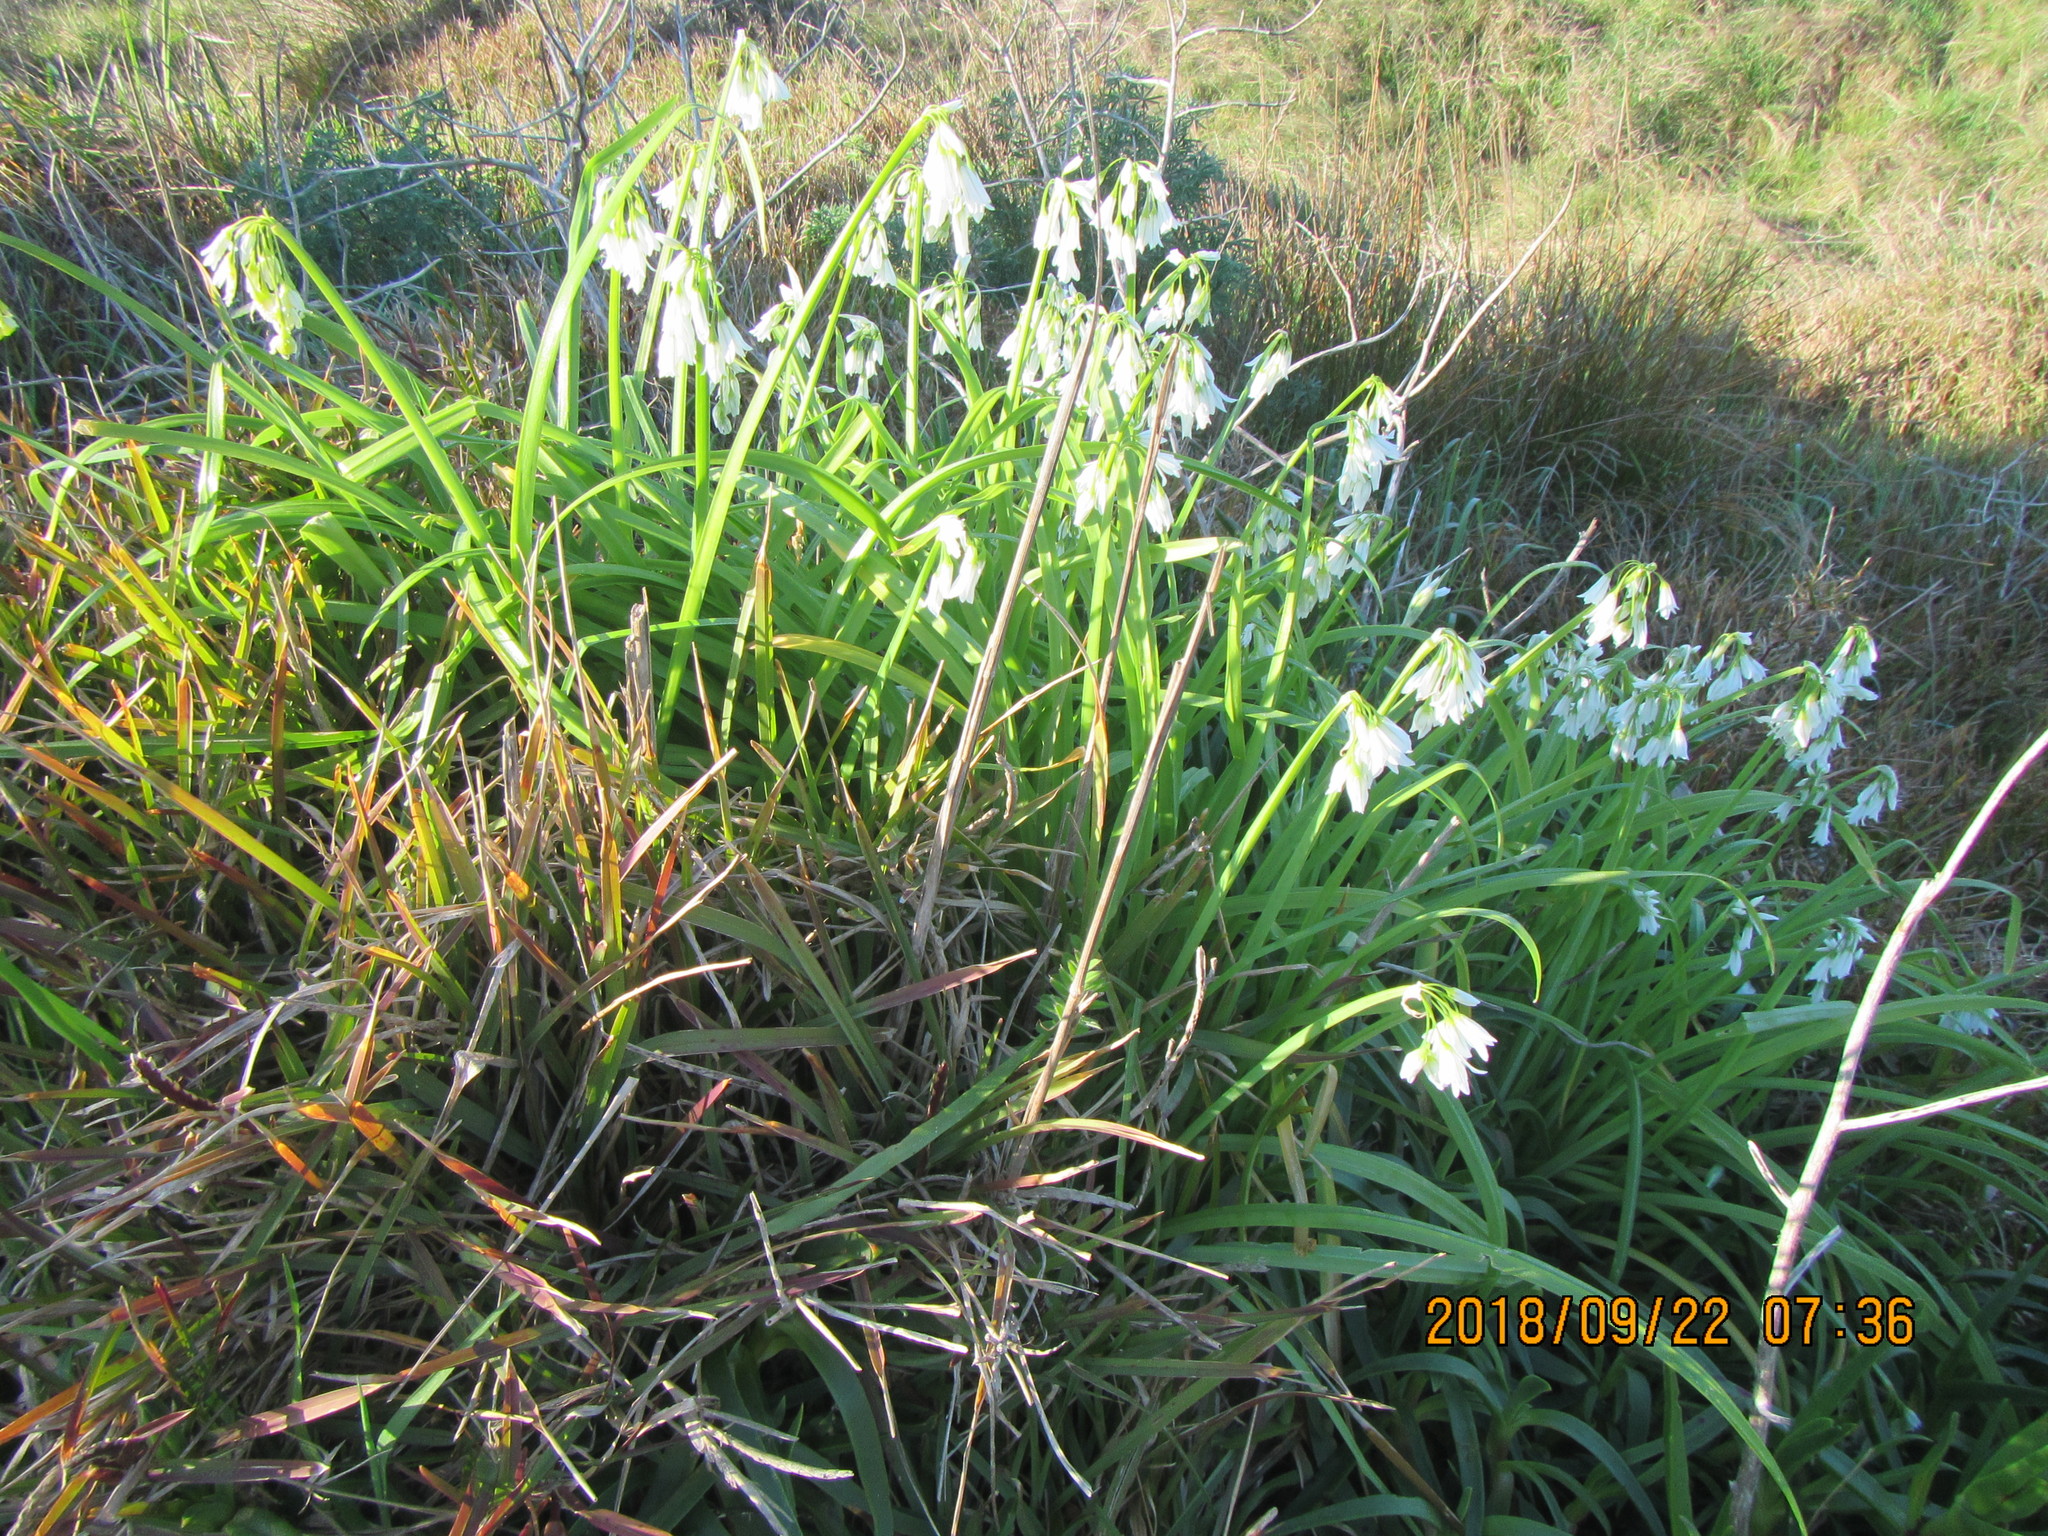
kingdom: Plantae
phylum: Tracheophyta
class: Liliopsida
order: Asparagales
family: Amaryllidaceae
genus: Allium
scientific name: Allium triquetrum
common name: Three-cornered garlic
